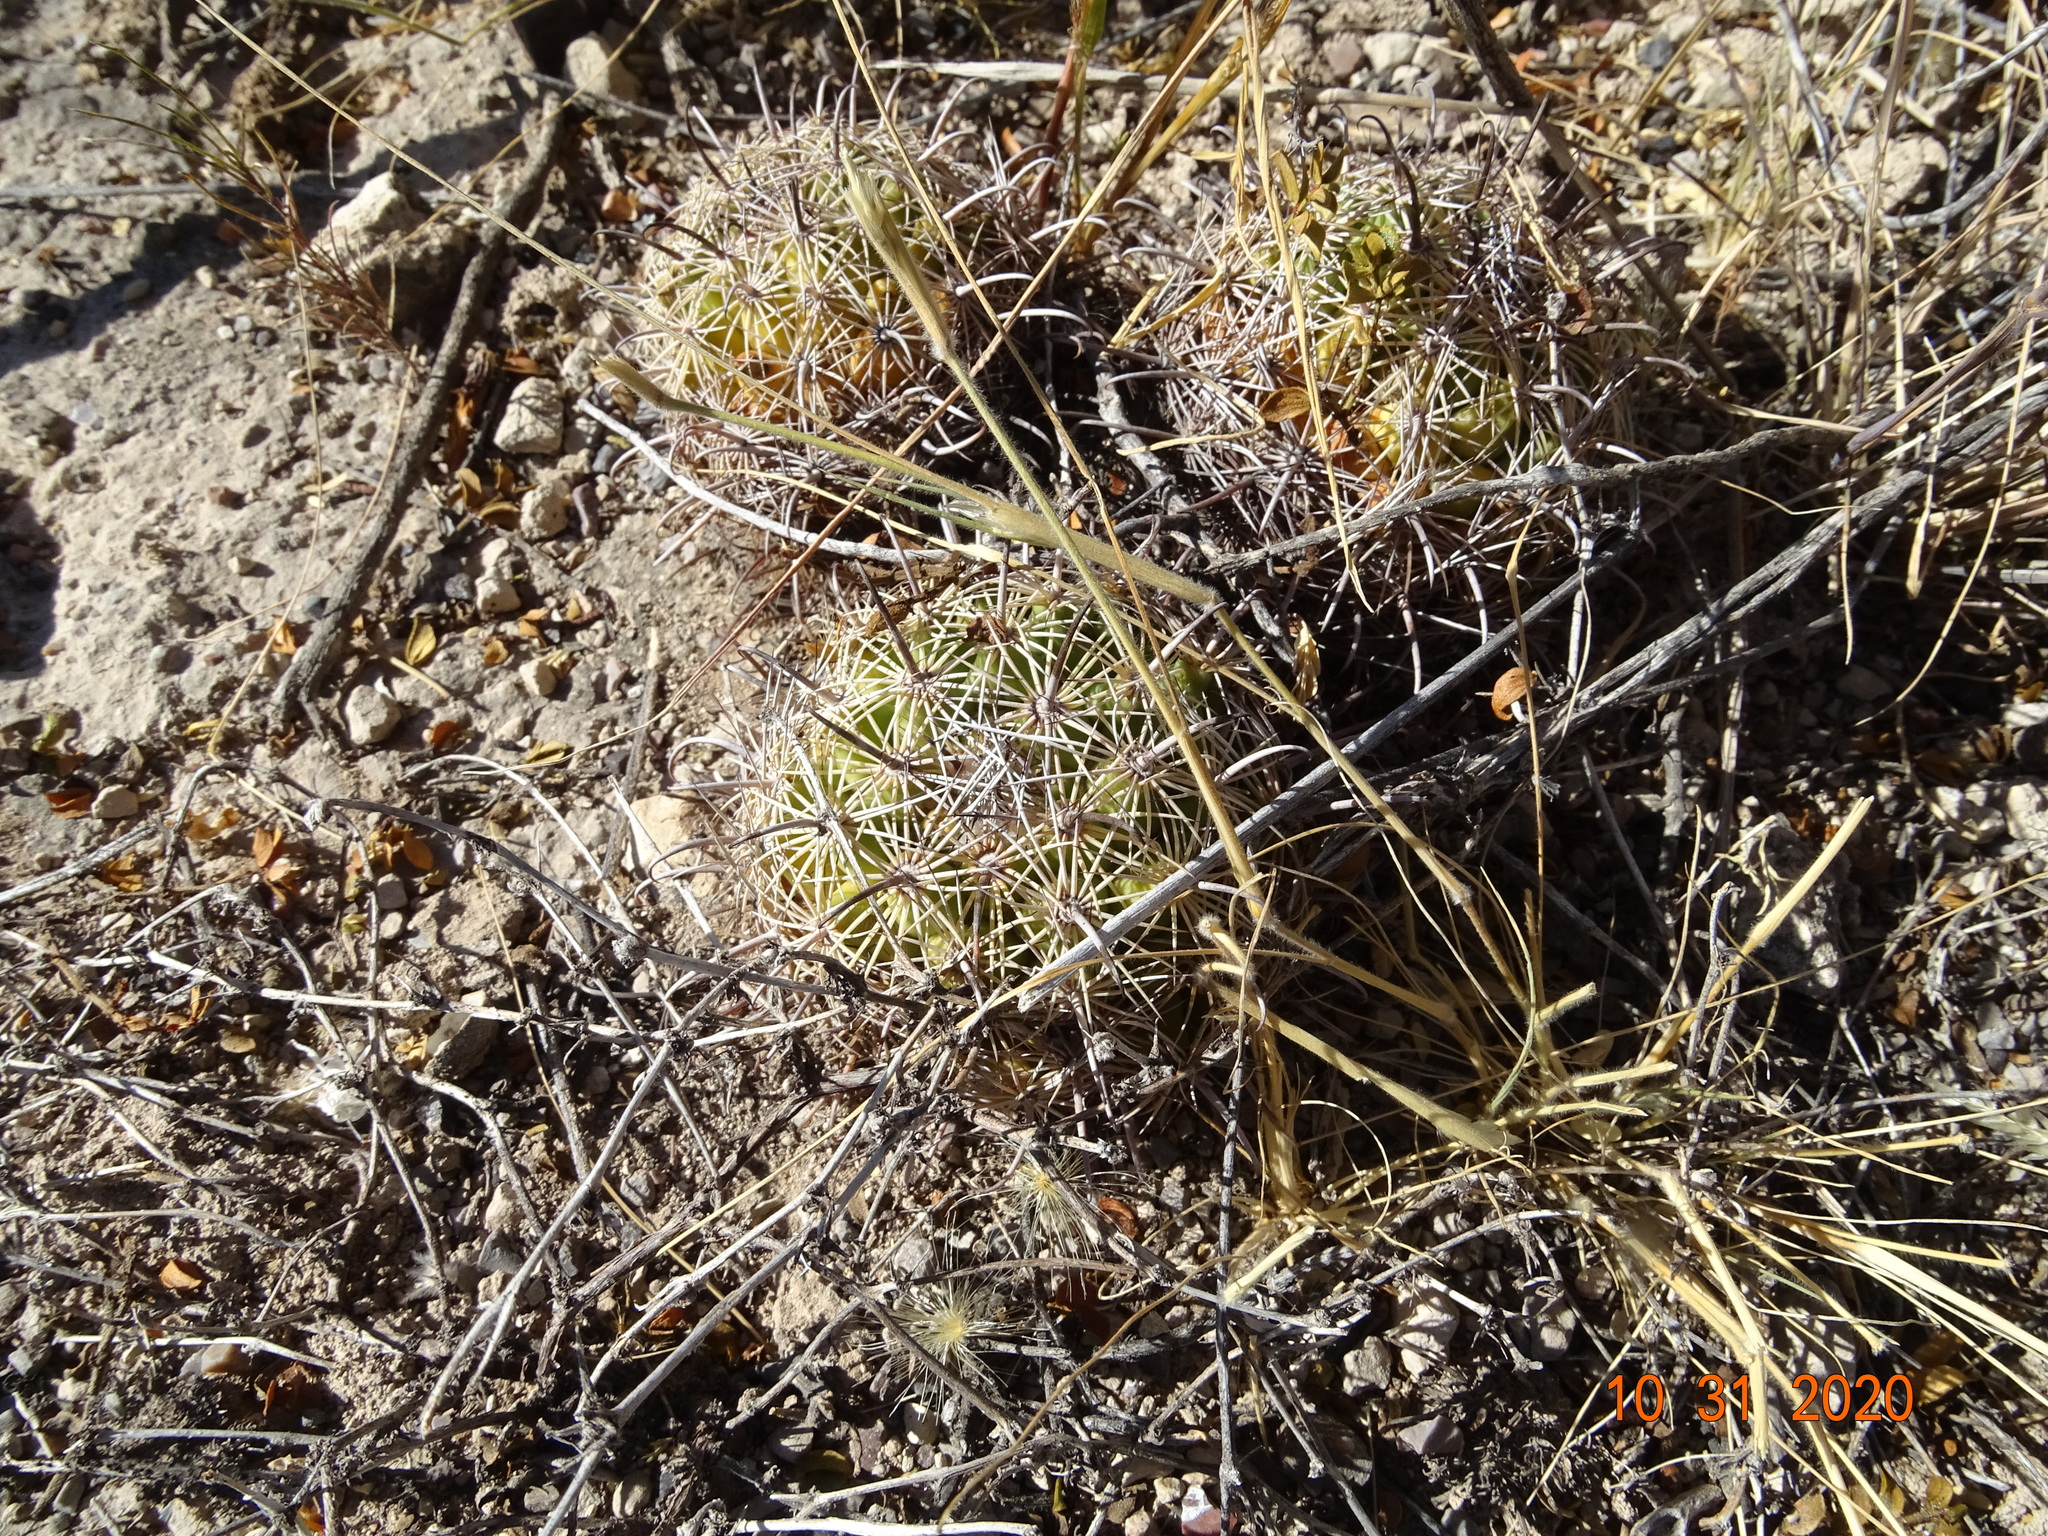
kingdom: Plantae
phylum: Tracheophyta
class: Magnoliopsida
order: Caryophyllales
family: Cactaceae
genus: Coryphantha
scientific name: Coryphantha delicata
